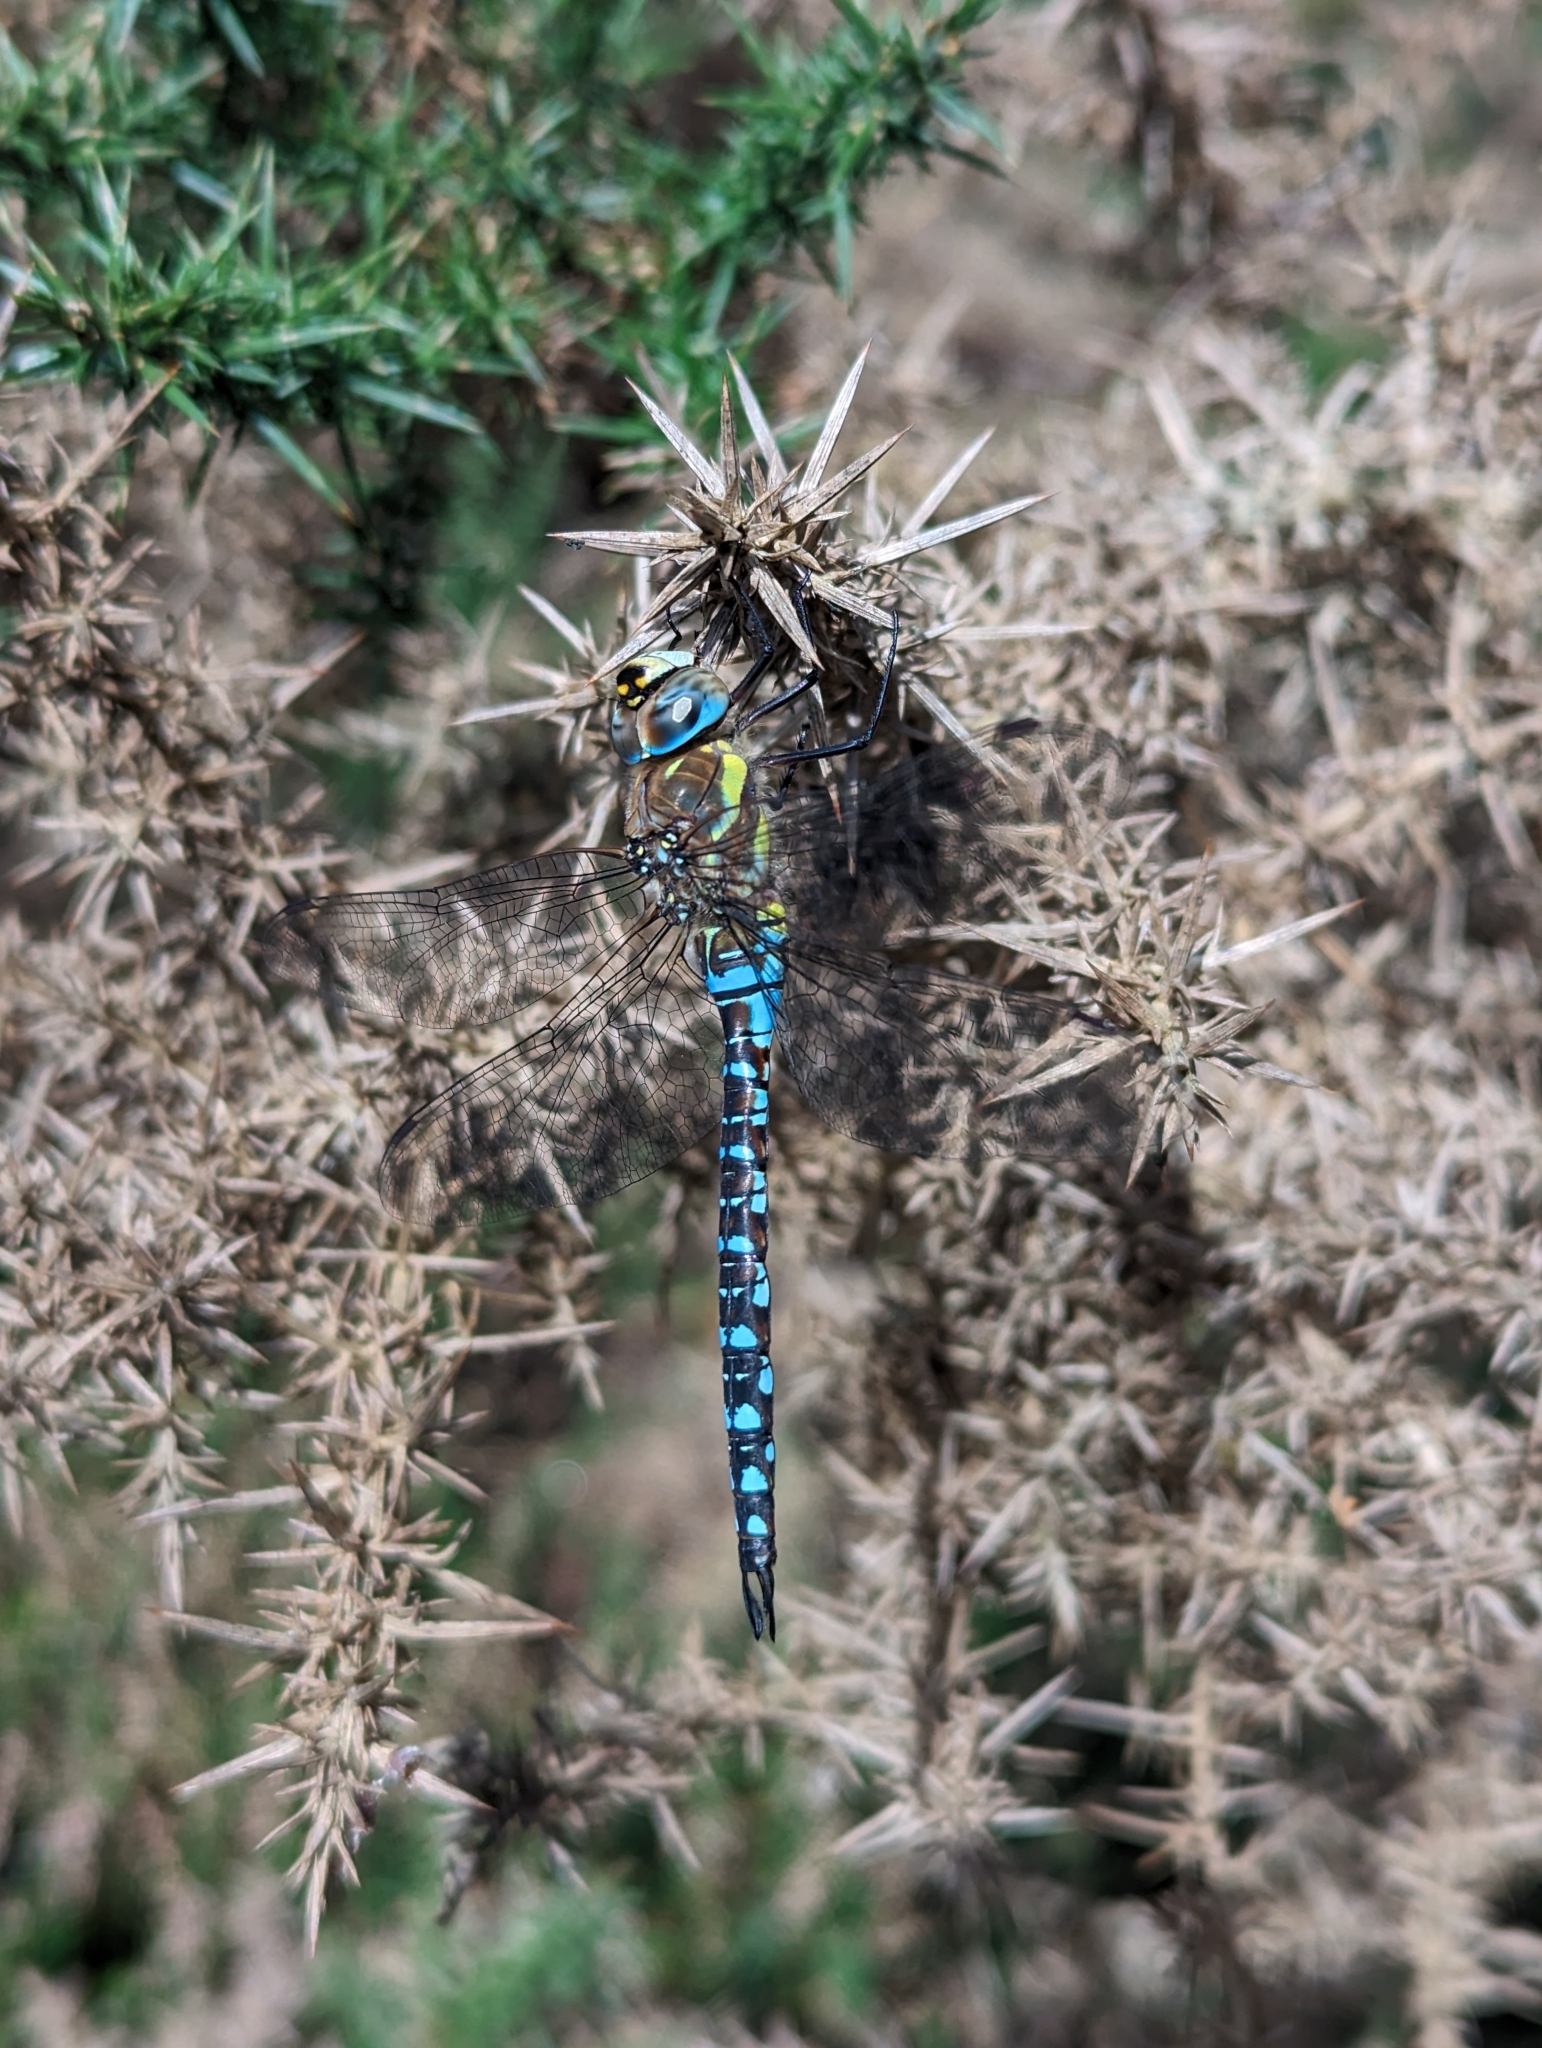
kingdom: Animalia
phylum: Arthropoda
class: Insecta
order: Odonata
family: Aeshnidae
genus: Aeshna
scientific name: Aeshna mixta
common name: Migrant hawker
